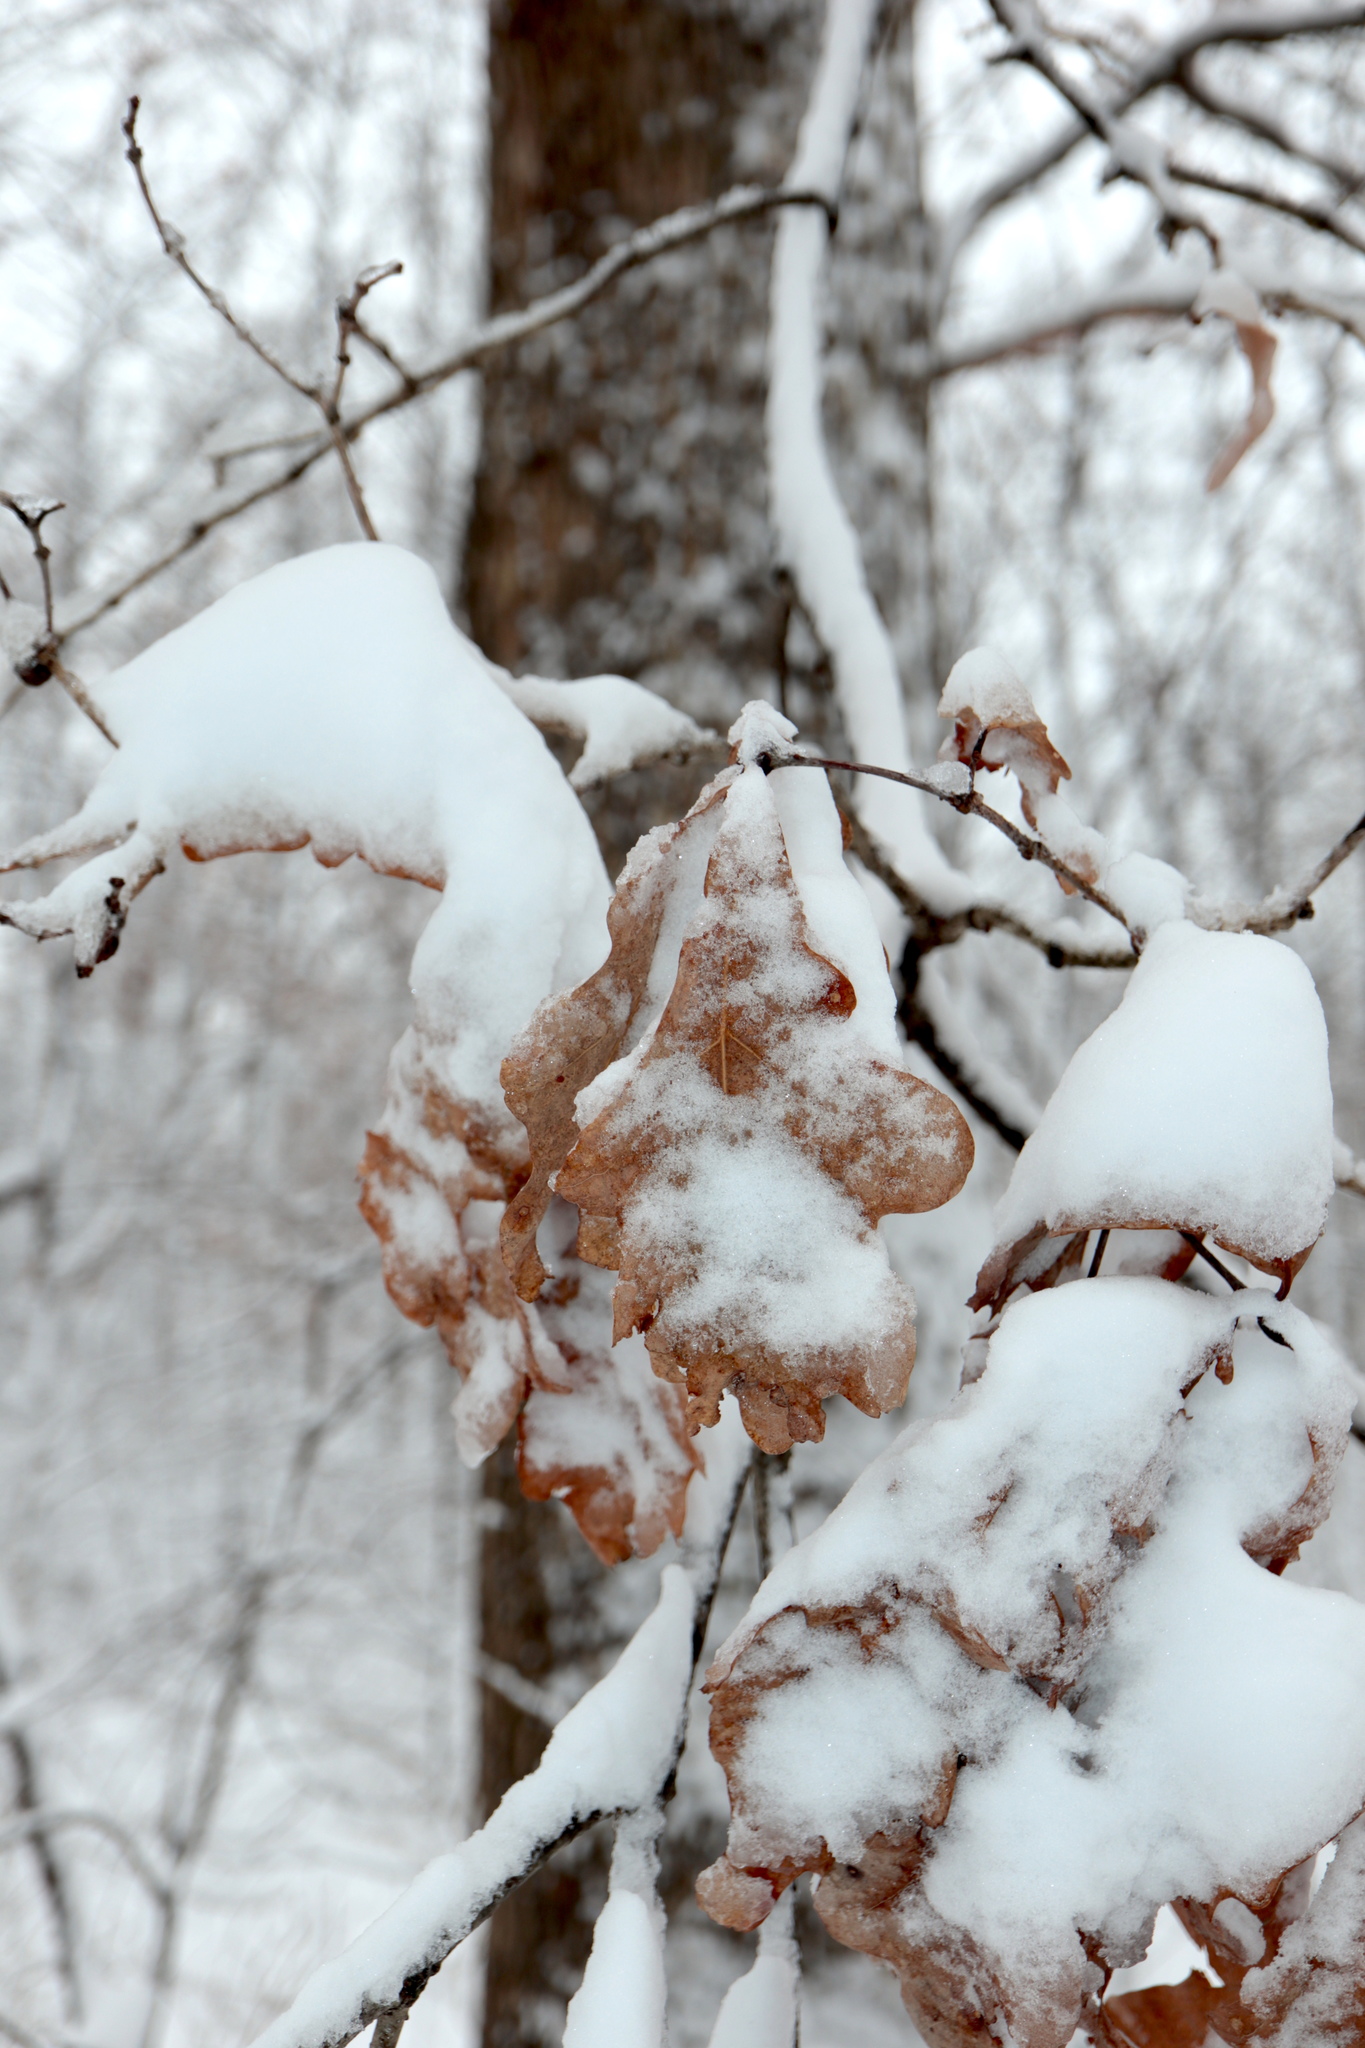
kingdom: Plantae
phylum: Tracheophyta
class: Magnoliopsida
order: Fagales
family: Fagaceae
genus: Quercus
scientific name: Quercus alba
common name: White oak
